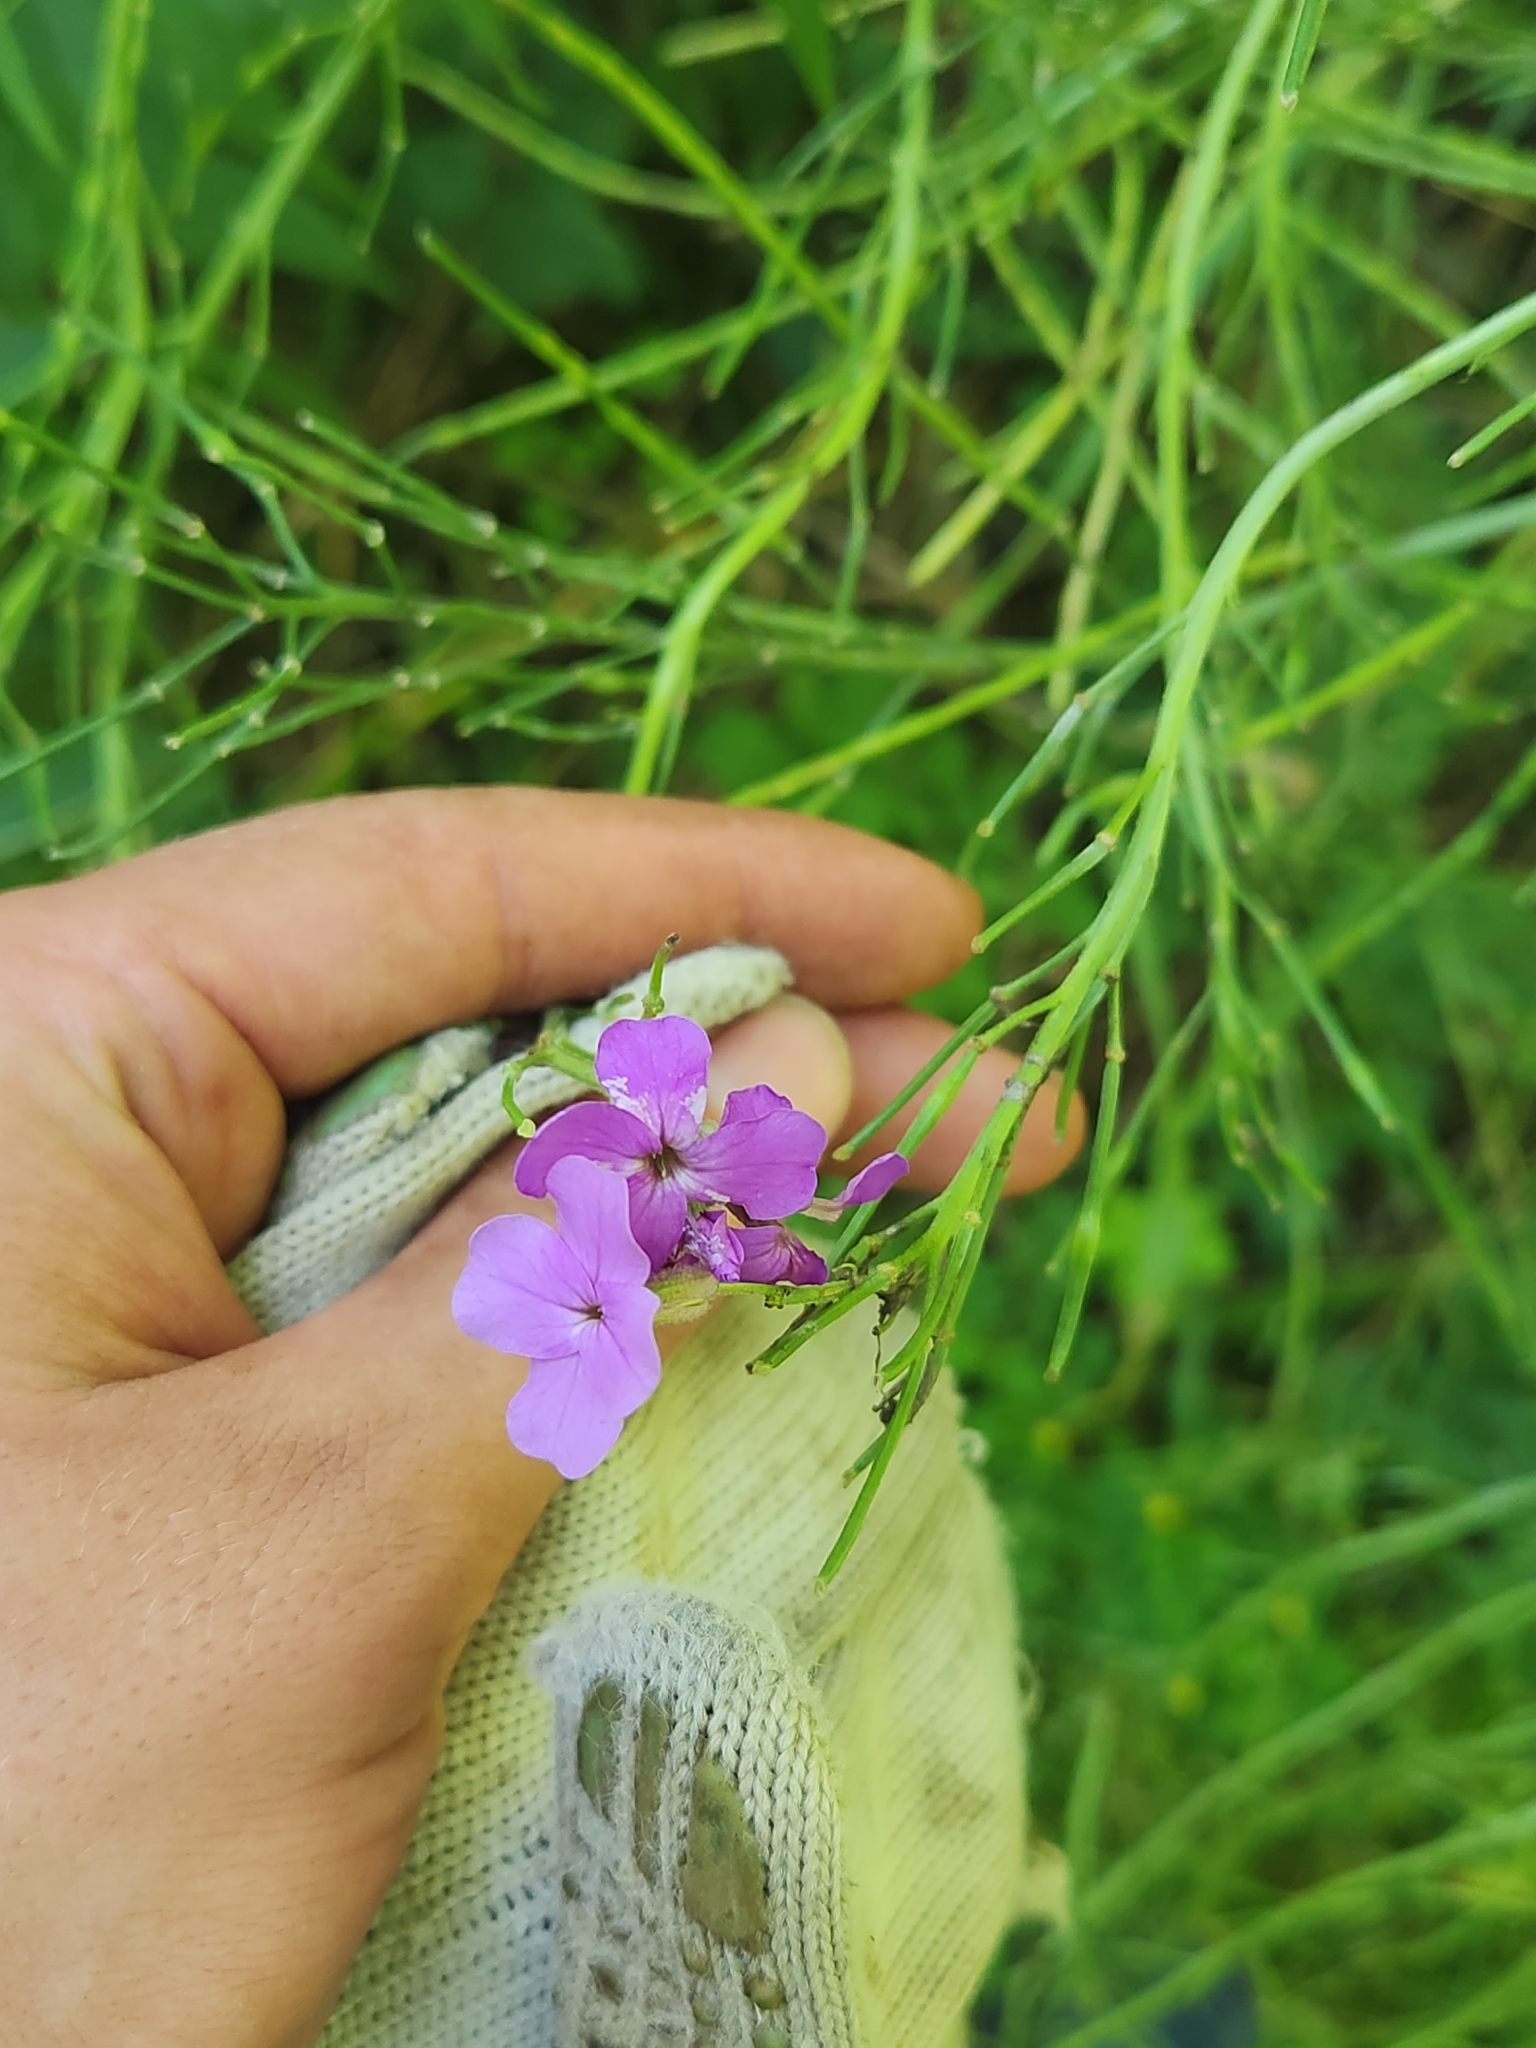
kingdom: Plantae
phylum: Tracheophyta
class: Magnoliopsida
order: Brassicales
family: Brassicaceae
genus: Hesperis
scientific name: Hesperis matronalis
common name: Dame's-violet
